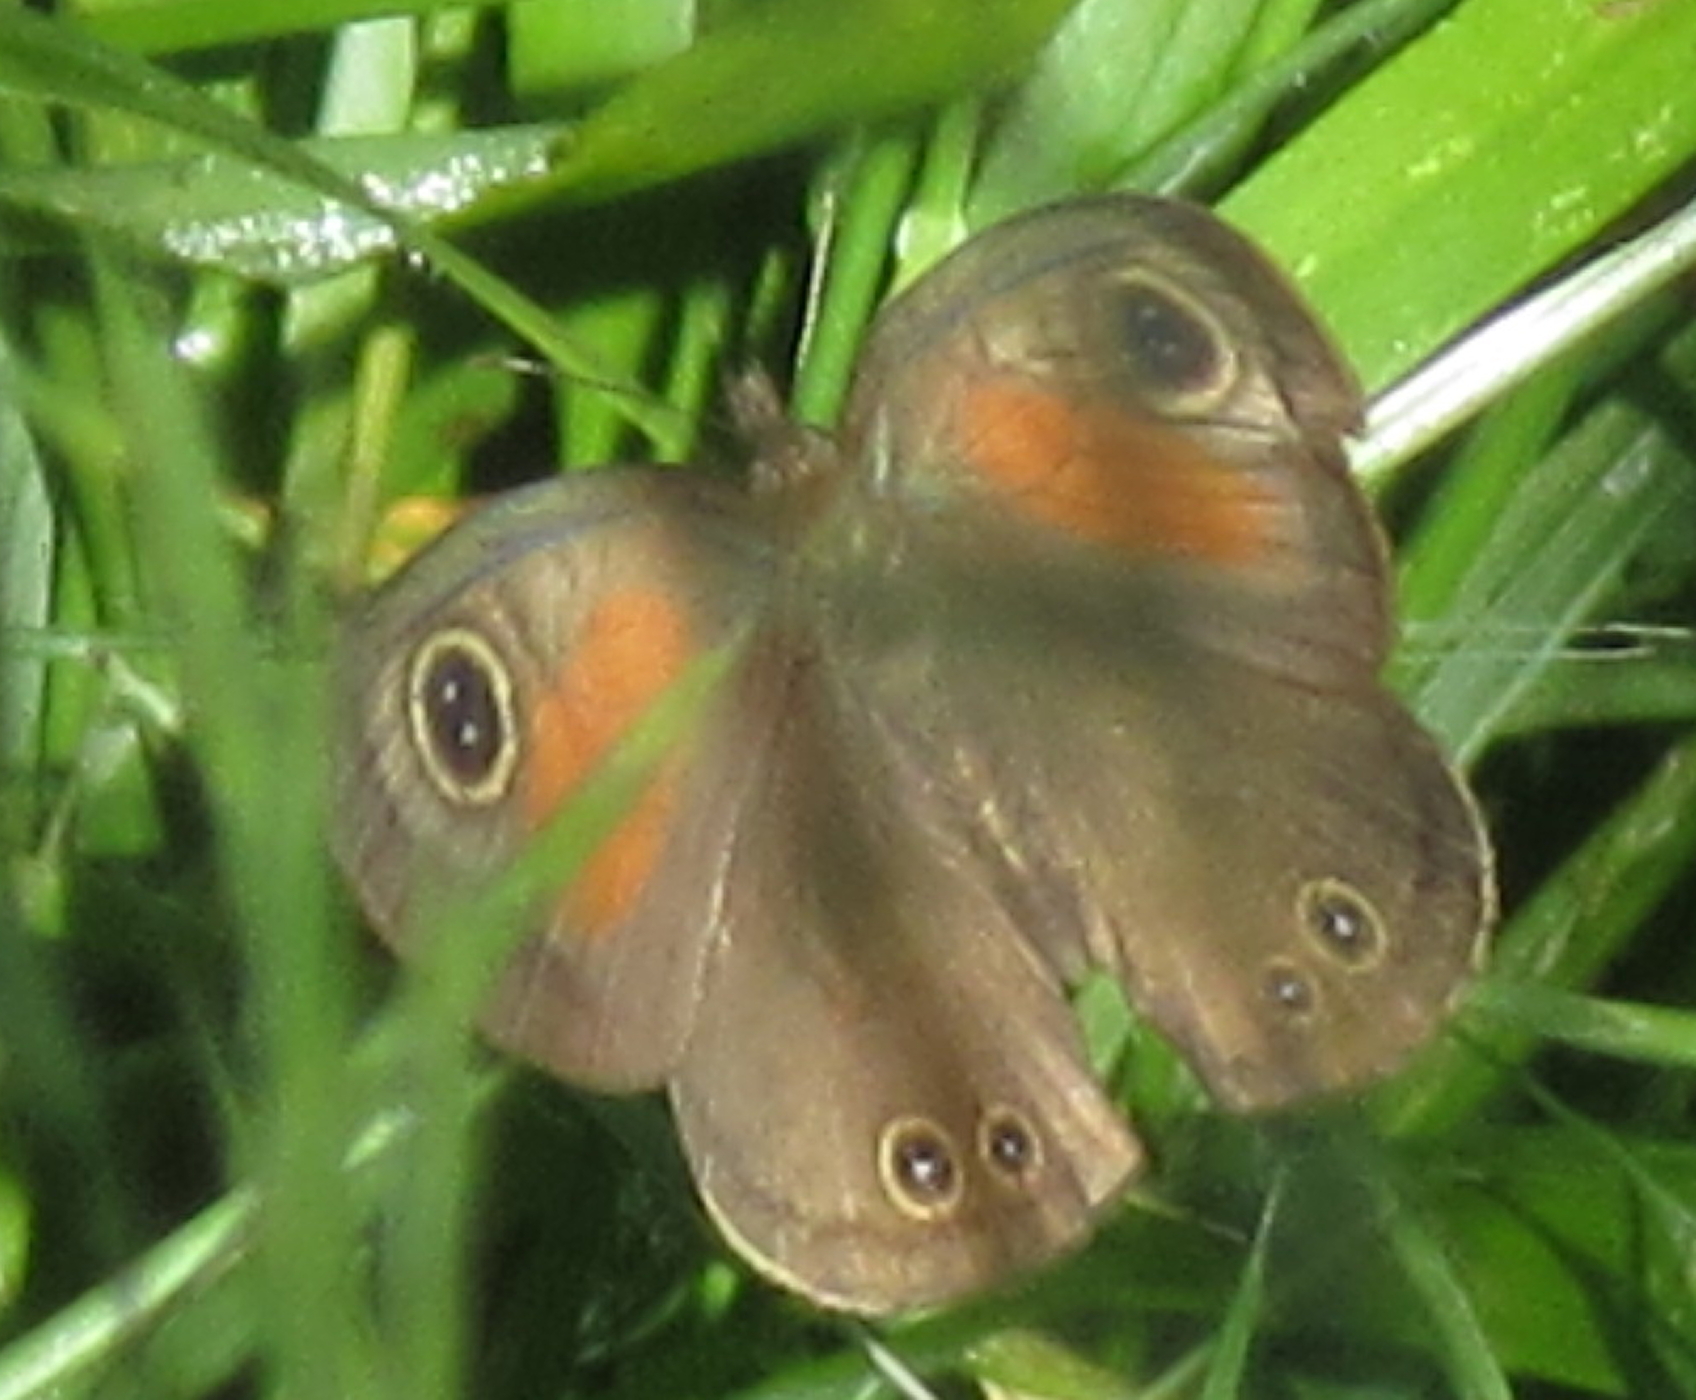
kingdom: Animalia
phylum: Arthropoda
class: Insecta
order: Lepidoptera
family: Nymphalidae
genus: Cassionympha
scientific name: Cassionympha cassius
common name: Rainforest brown
